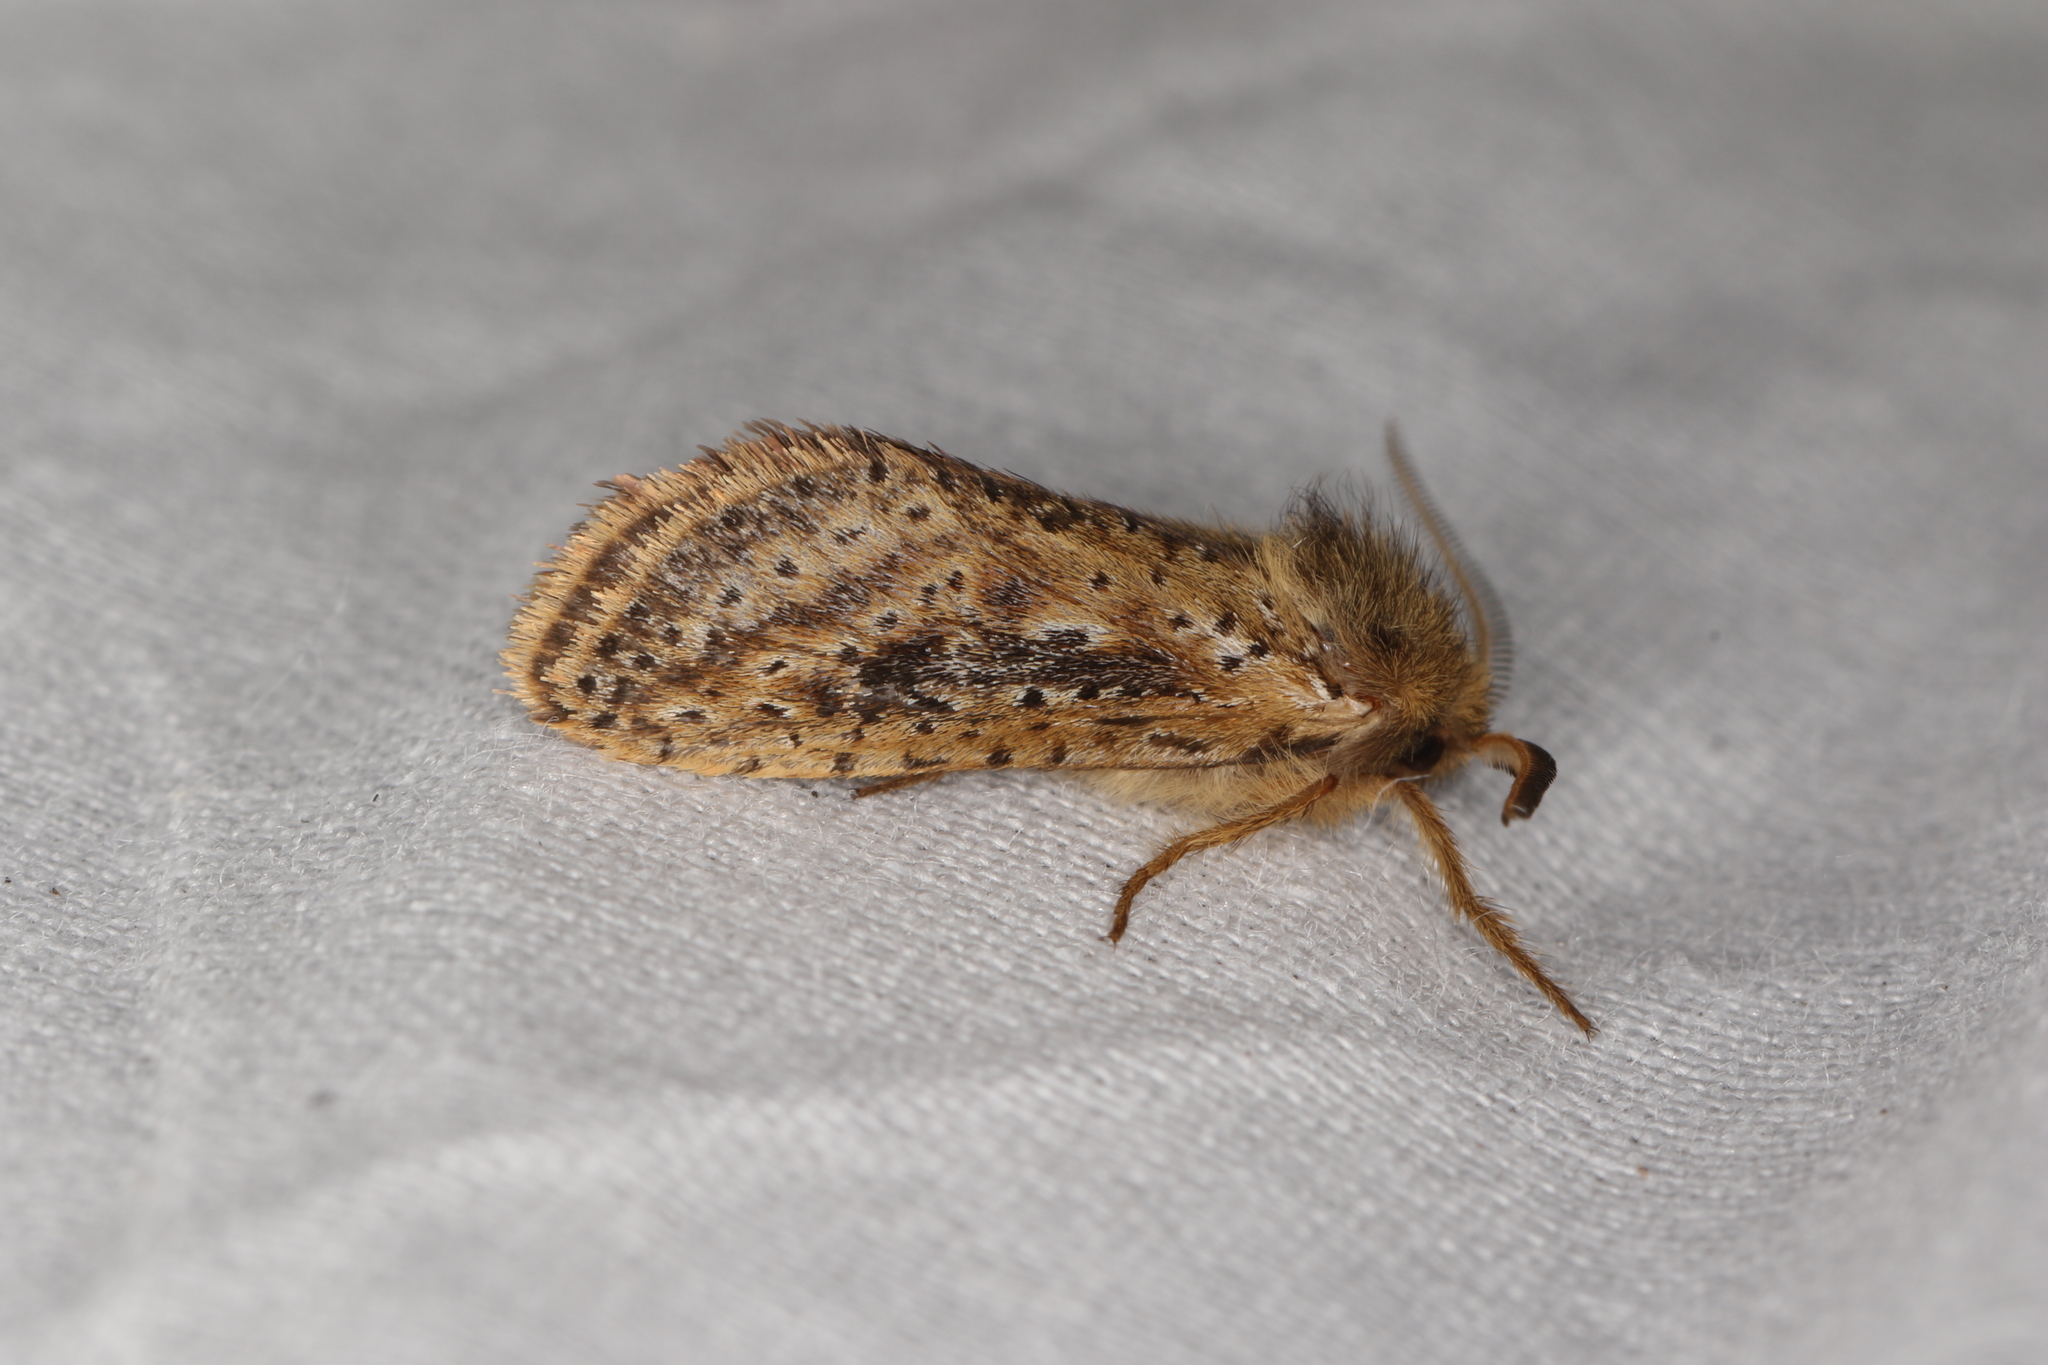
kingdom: Animalia
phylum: Arthropoda
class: Insecta
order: Lepidoptera
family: Hepialidae
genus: Fraus
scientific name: Fraus simulans
